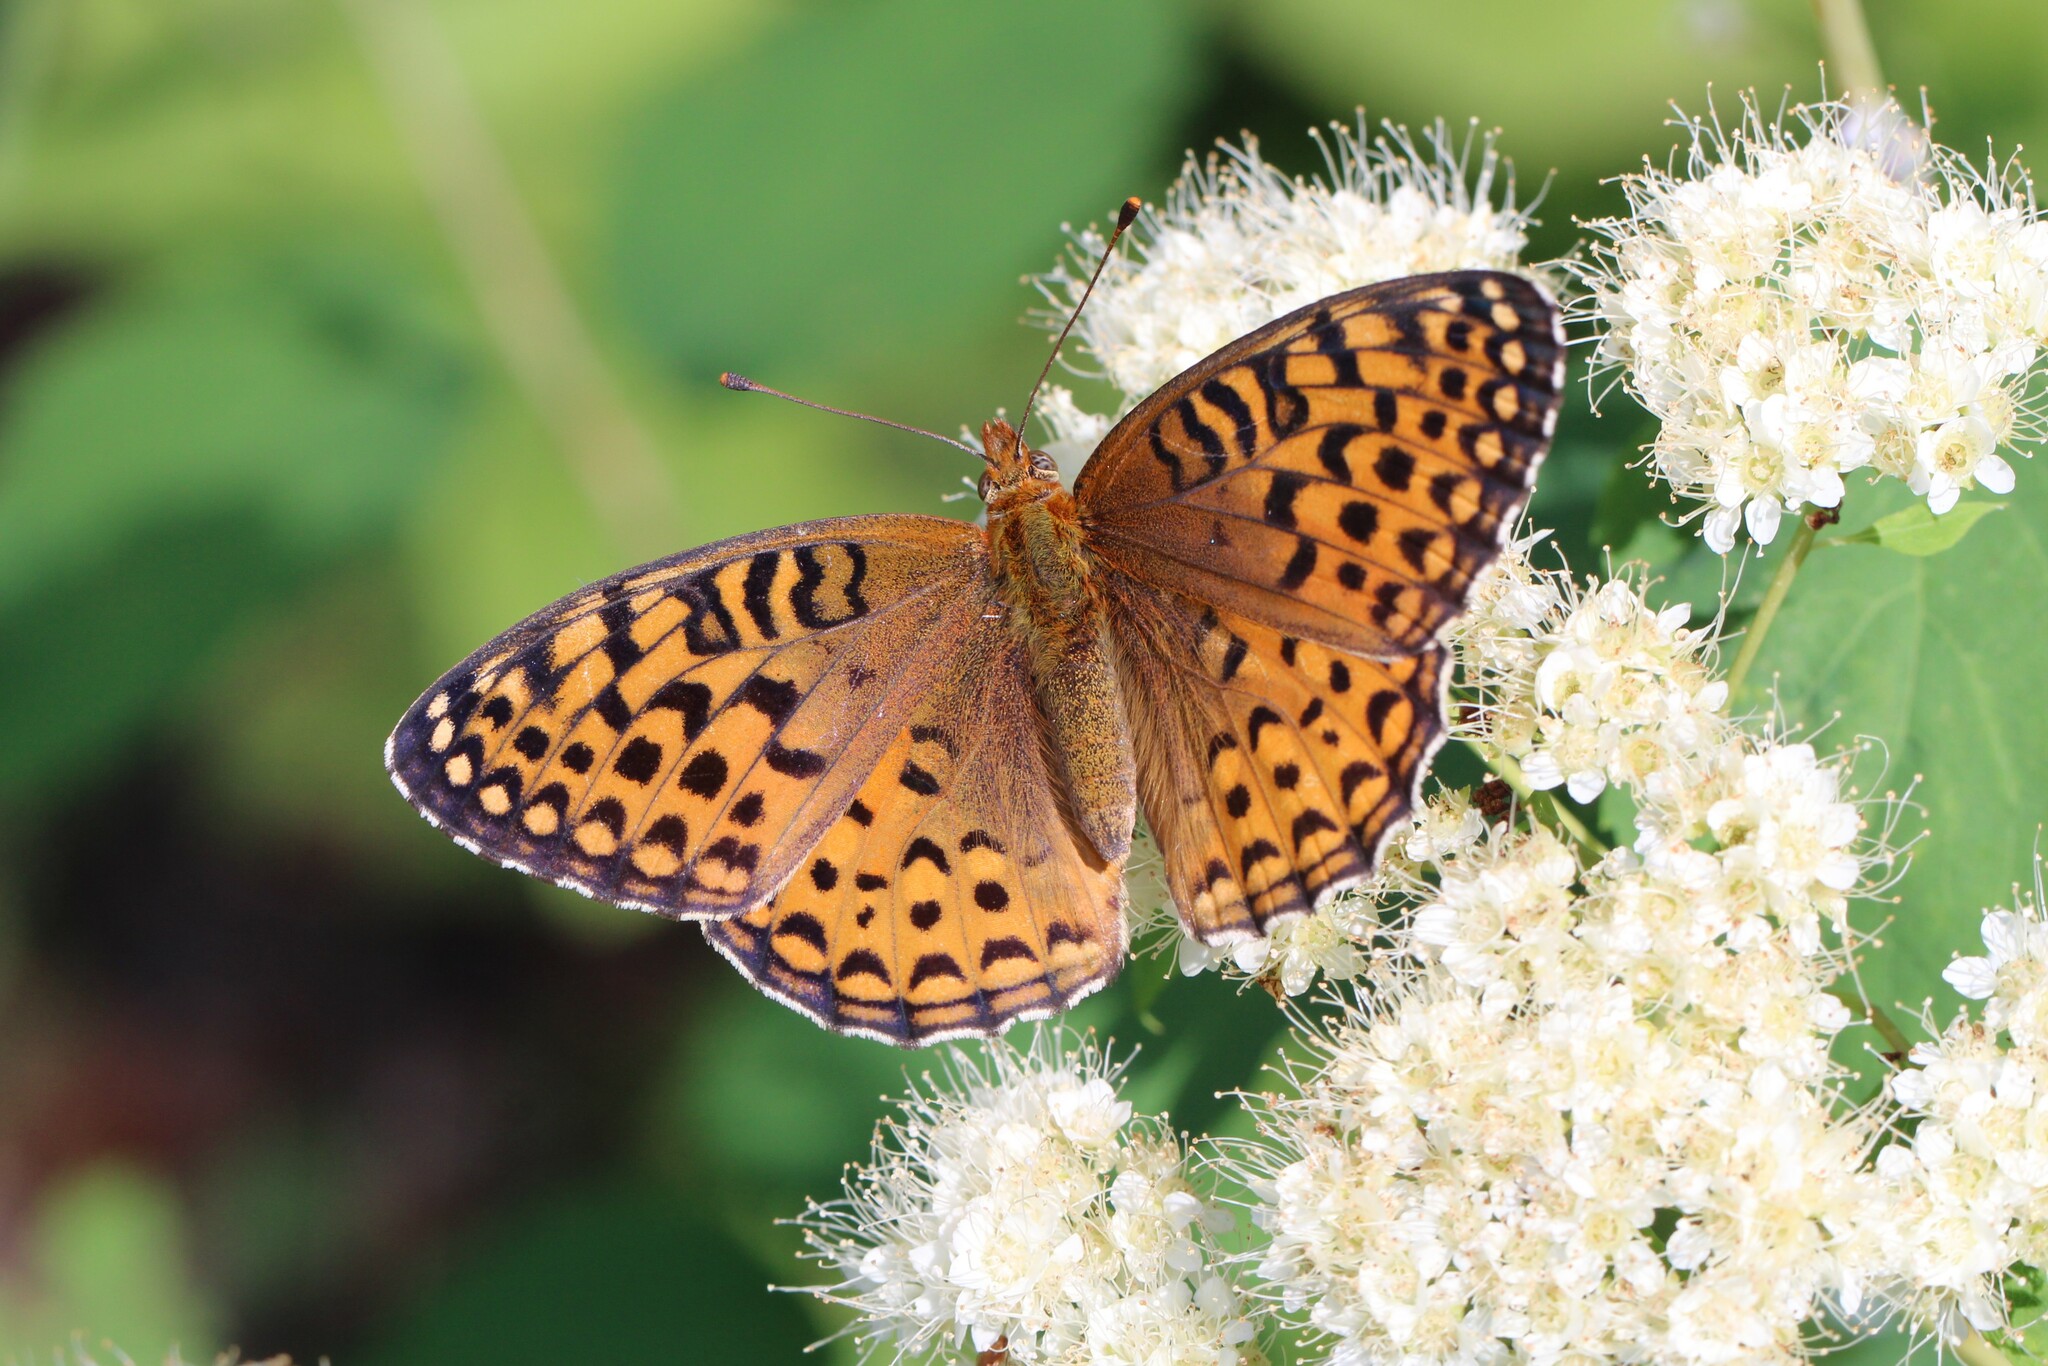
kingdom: Animalia
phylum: Arthropoda
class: Insecta
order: Lepidoptera
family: Nymphalidae
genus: Speyeria
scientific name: Speyeria atlantis
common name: Atlantis fritillary
